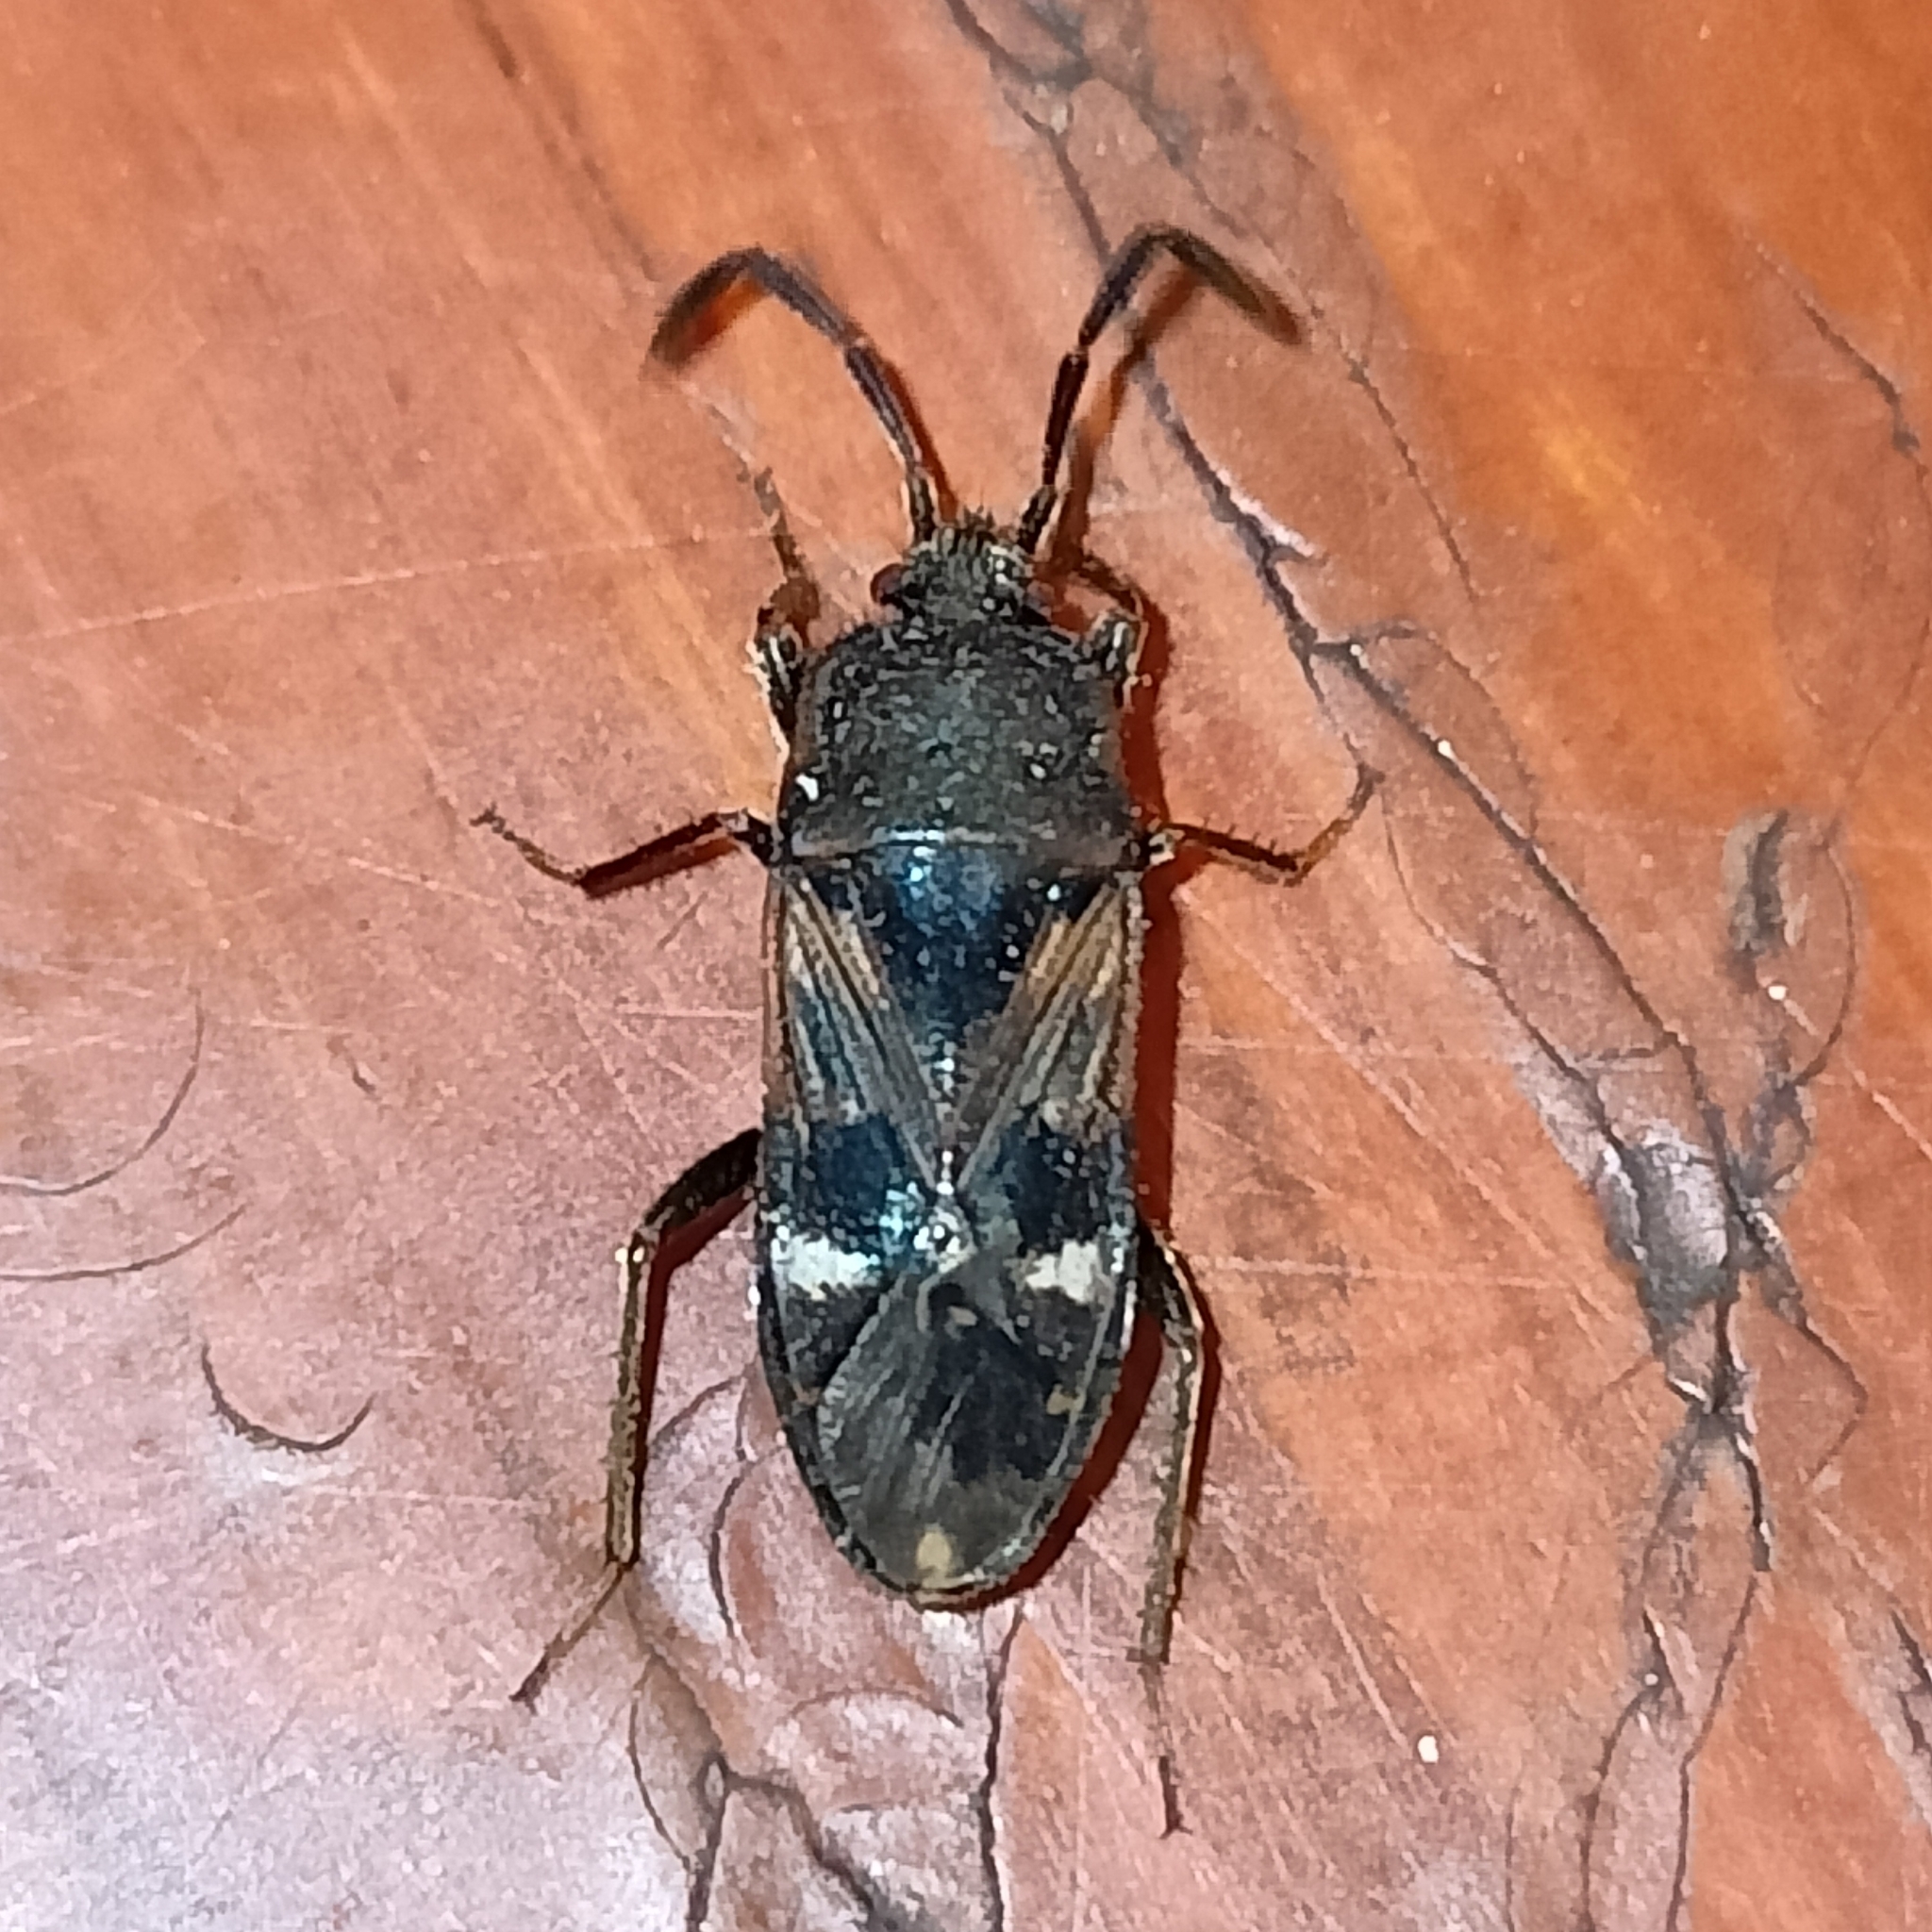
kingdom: Animalia
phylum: Arthropoda
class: Insecta
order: Hemiptera
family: Rhyparochromidae
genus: Lanchnophorus
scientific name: Lanchnophorus singalensis
